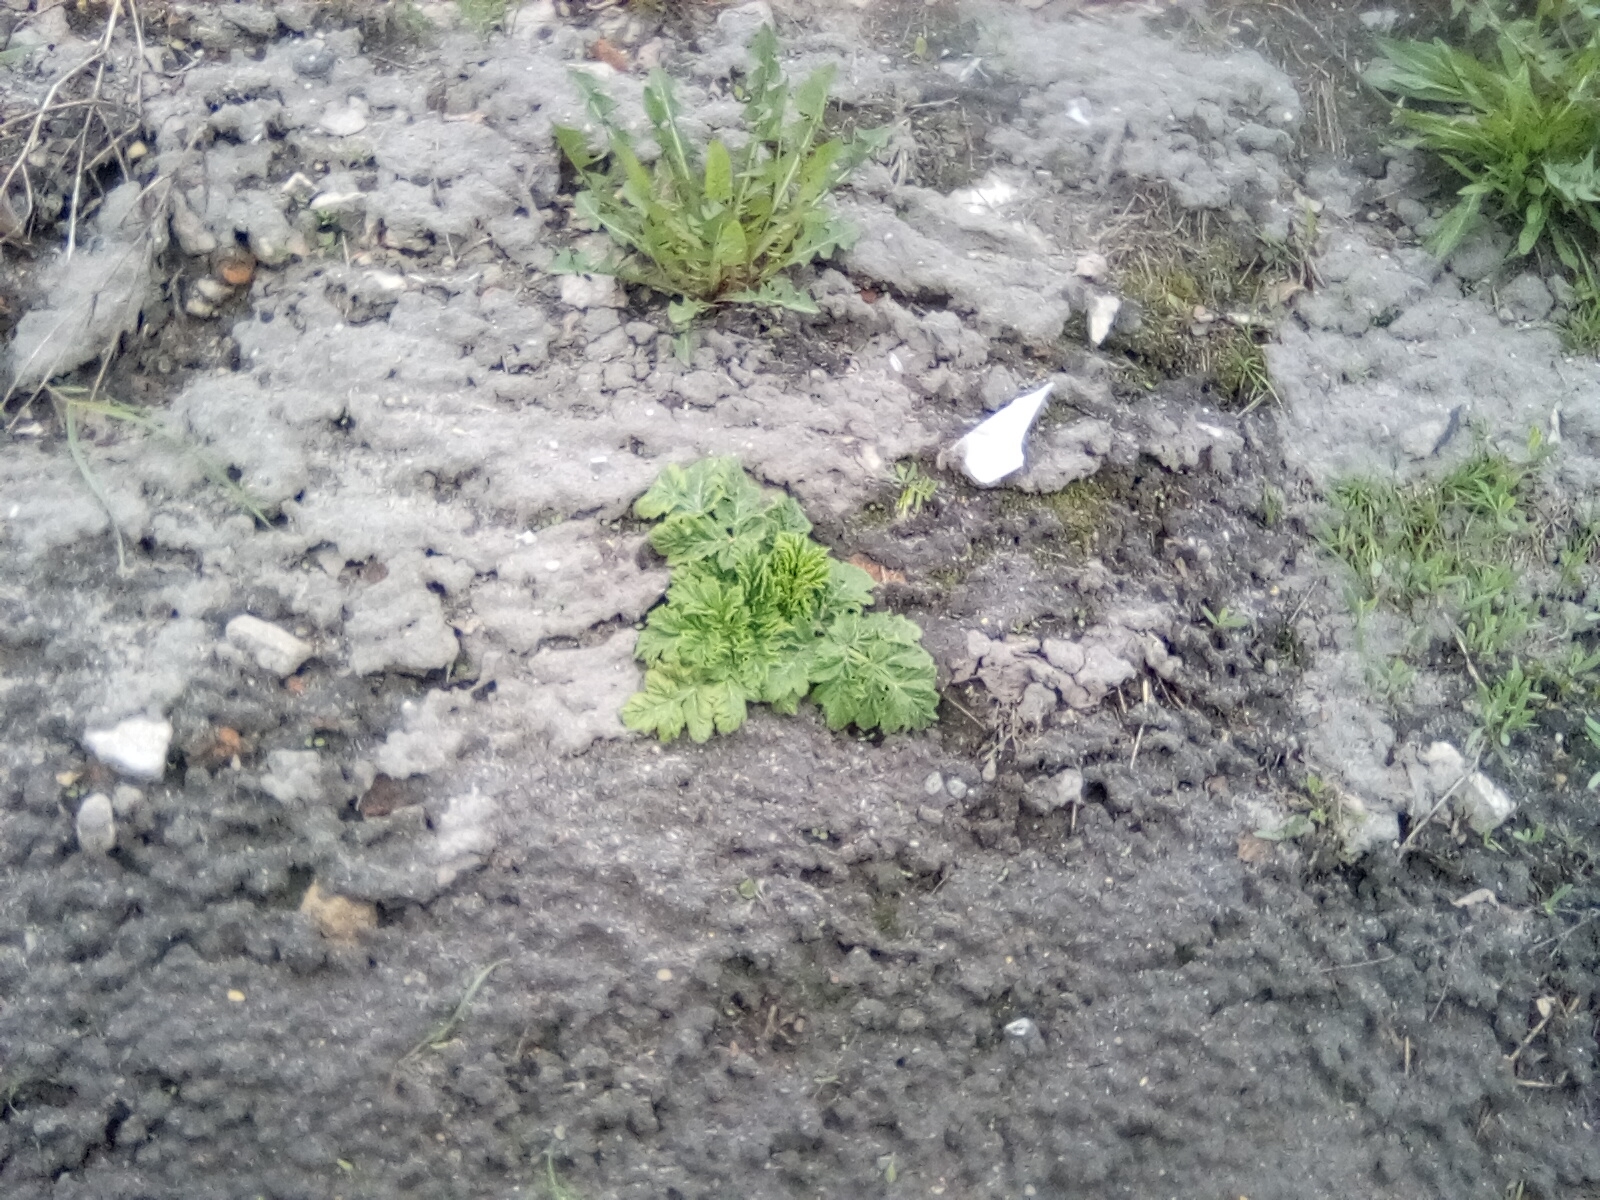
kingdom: Plantae
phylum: Tracheophyta
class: Magnoliopsida
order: Apiales
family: Apiaceae
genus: Heracleum
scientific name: Heracleum sosnowskyi
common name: Sosnowsky's hogweed
